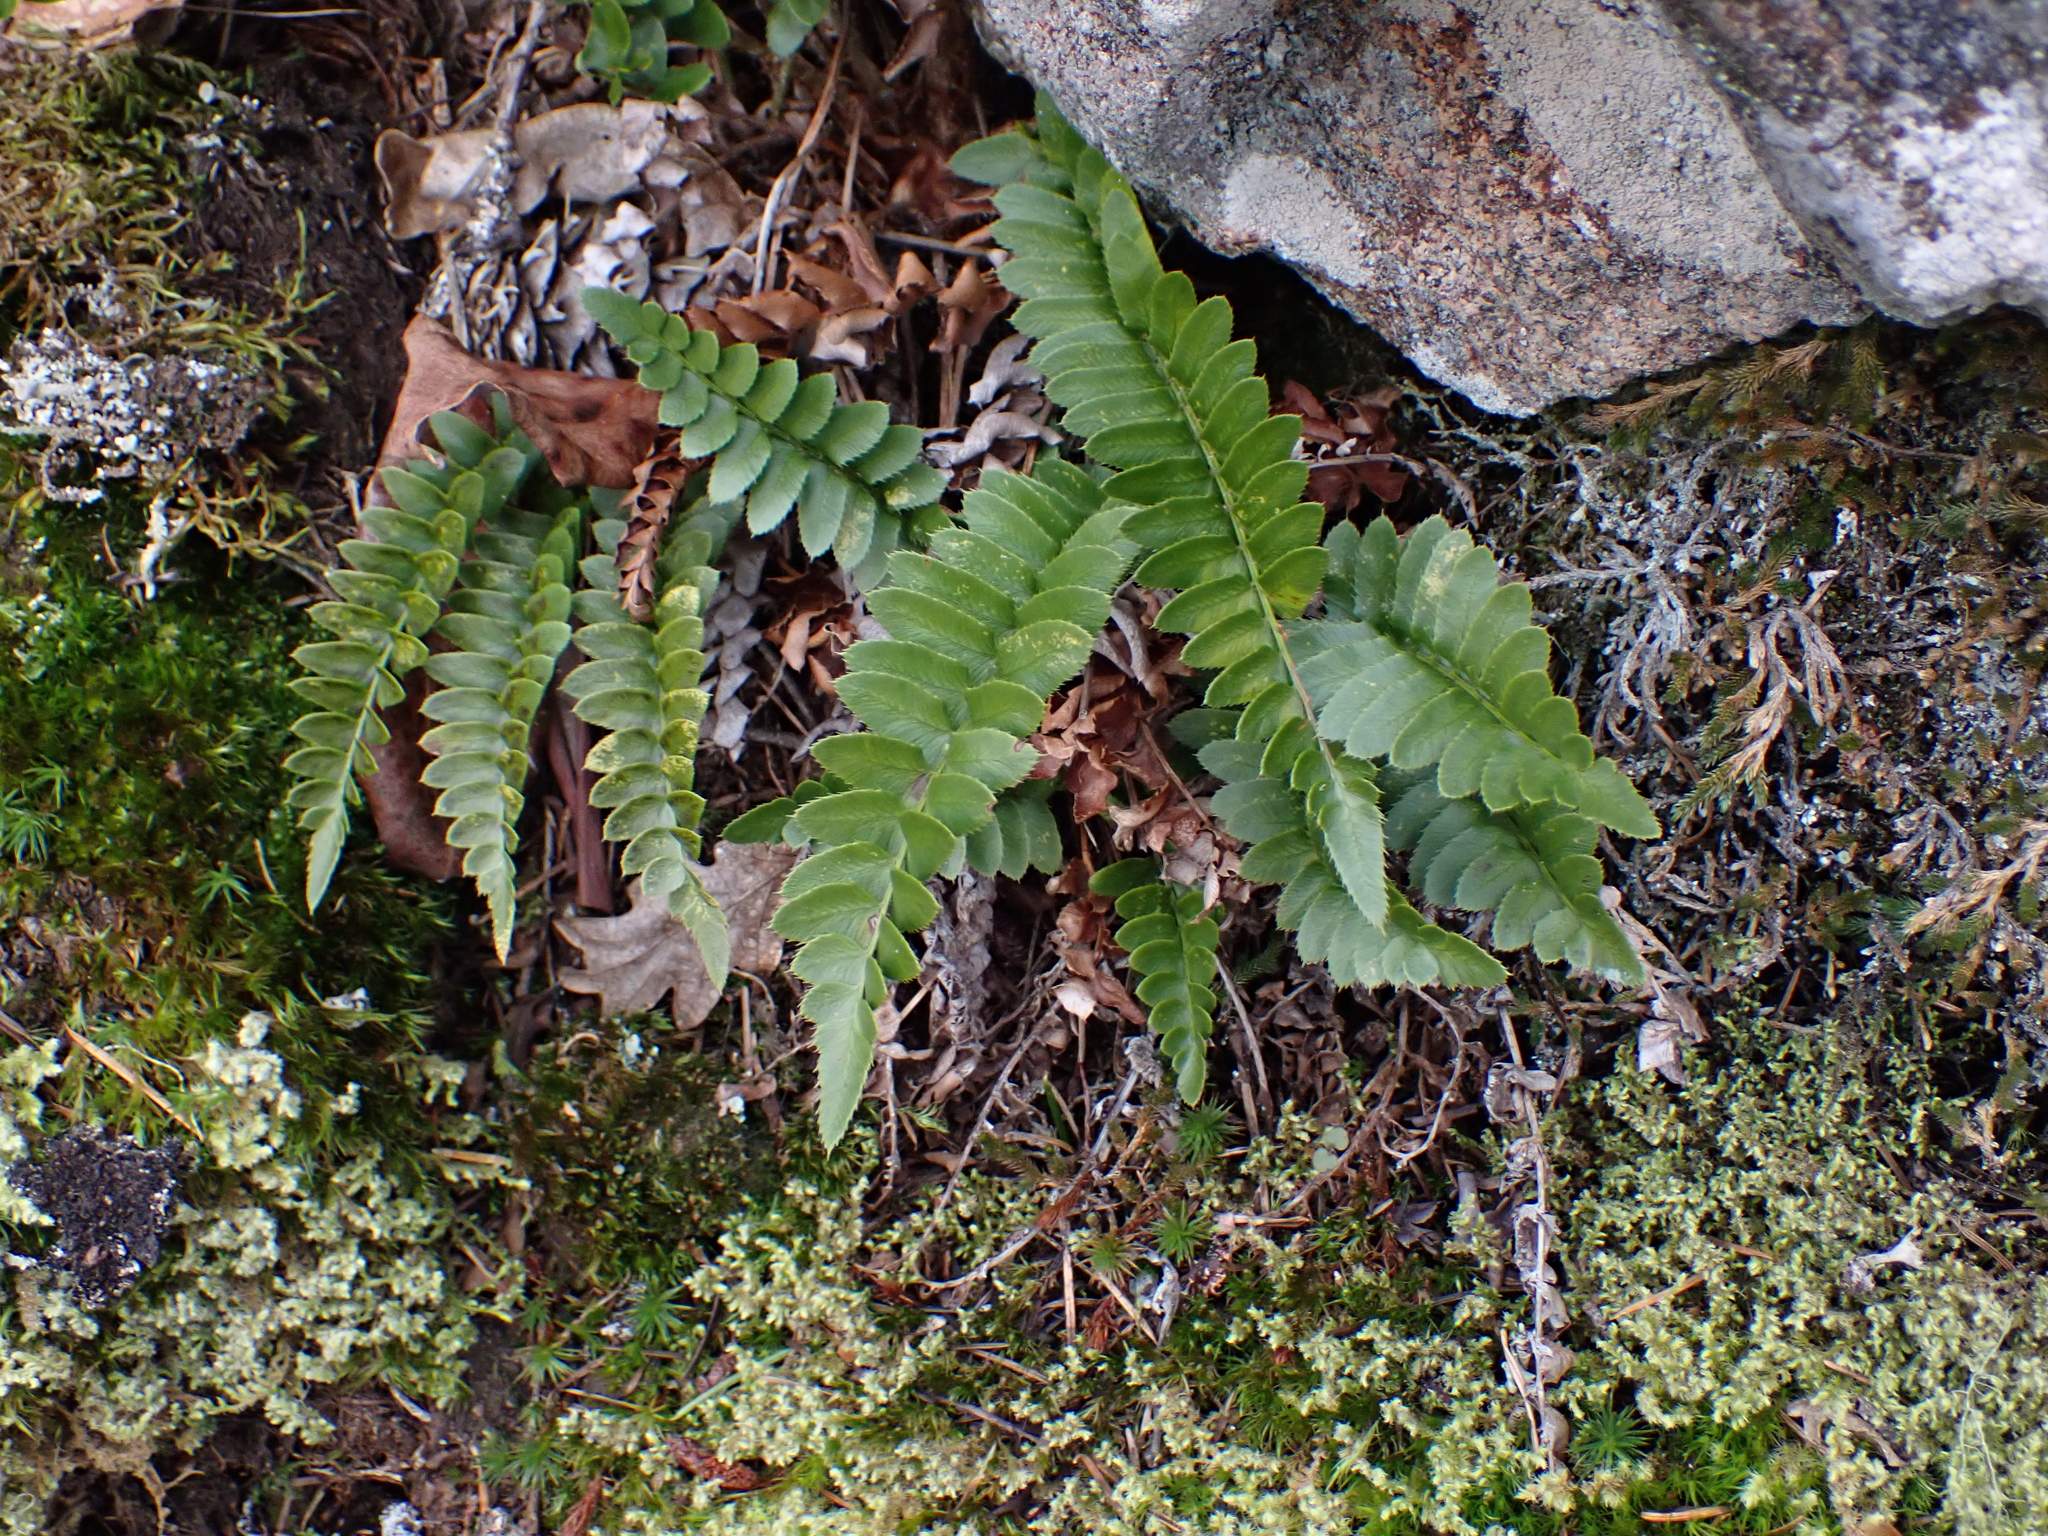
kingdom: Plantae
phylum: Tracheophyta
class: Polypodiopsida
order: Polypodiales
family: Dryopteridaceae
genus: Polystichum
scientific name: Polystichum imbricans
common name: Dwarf western sword fern
